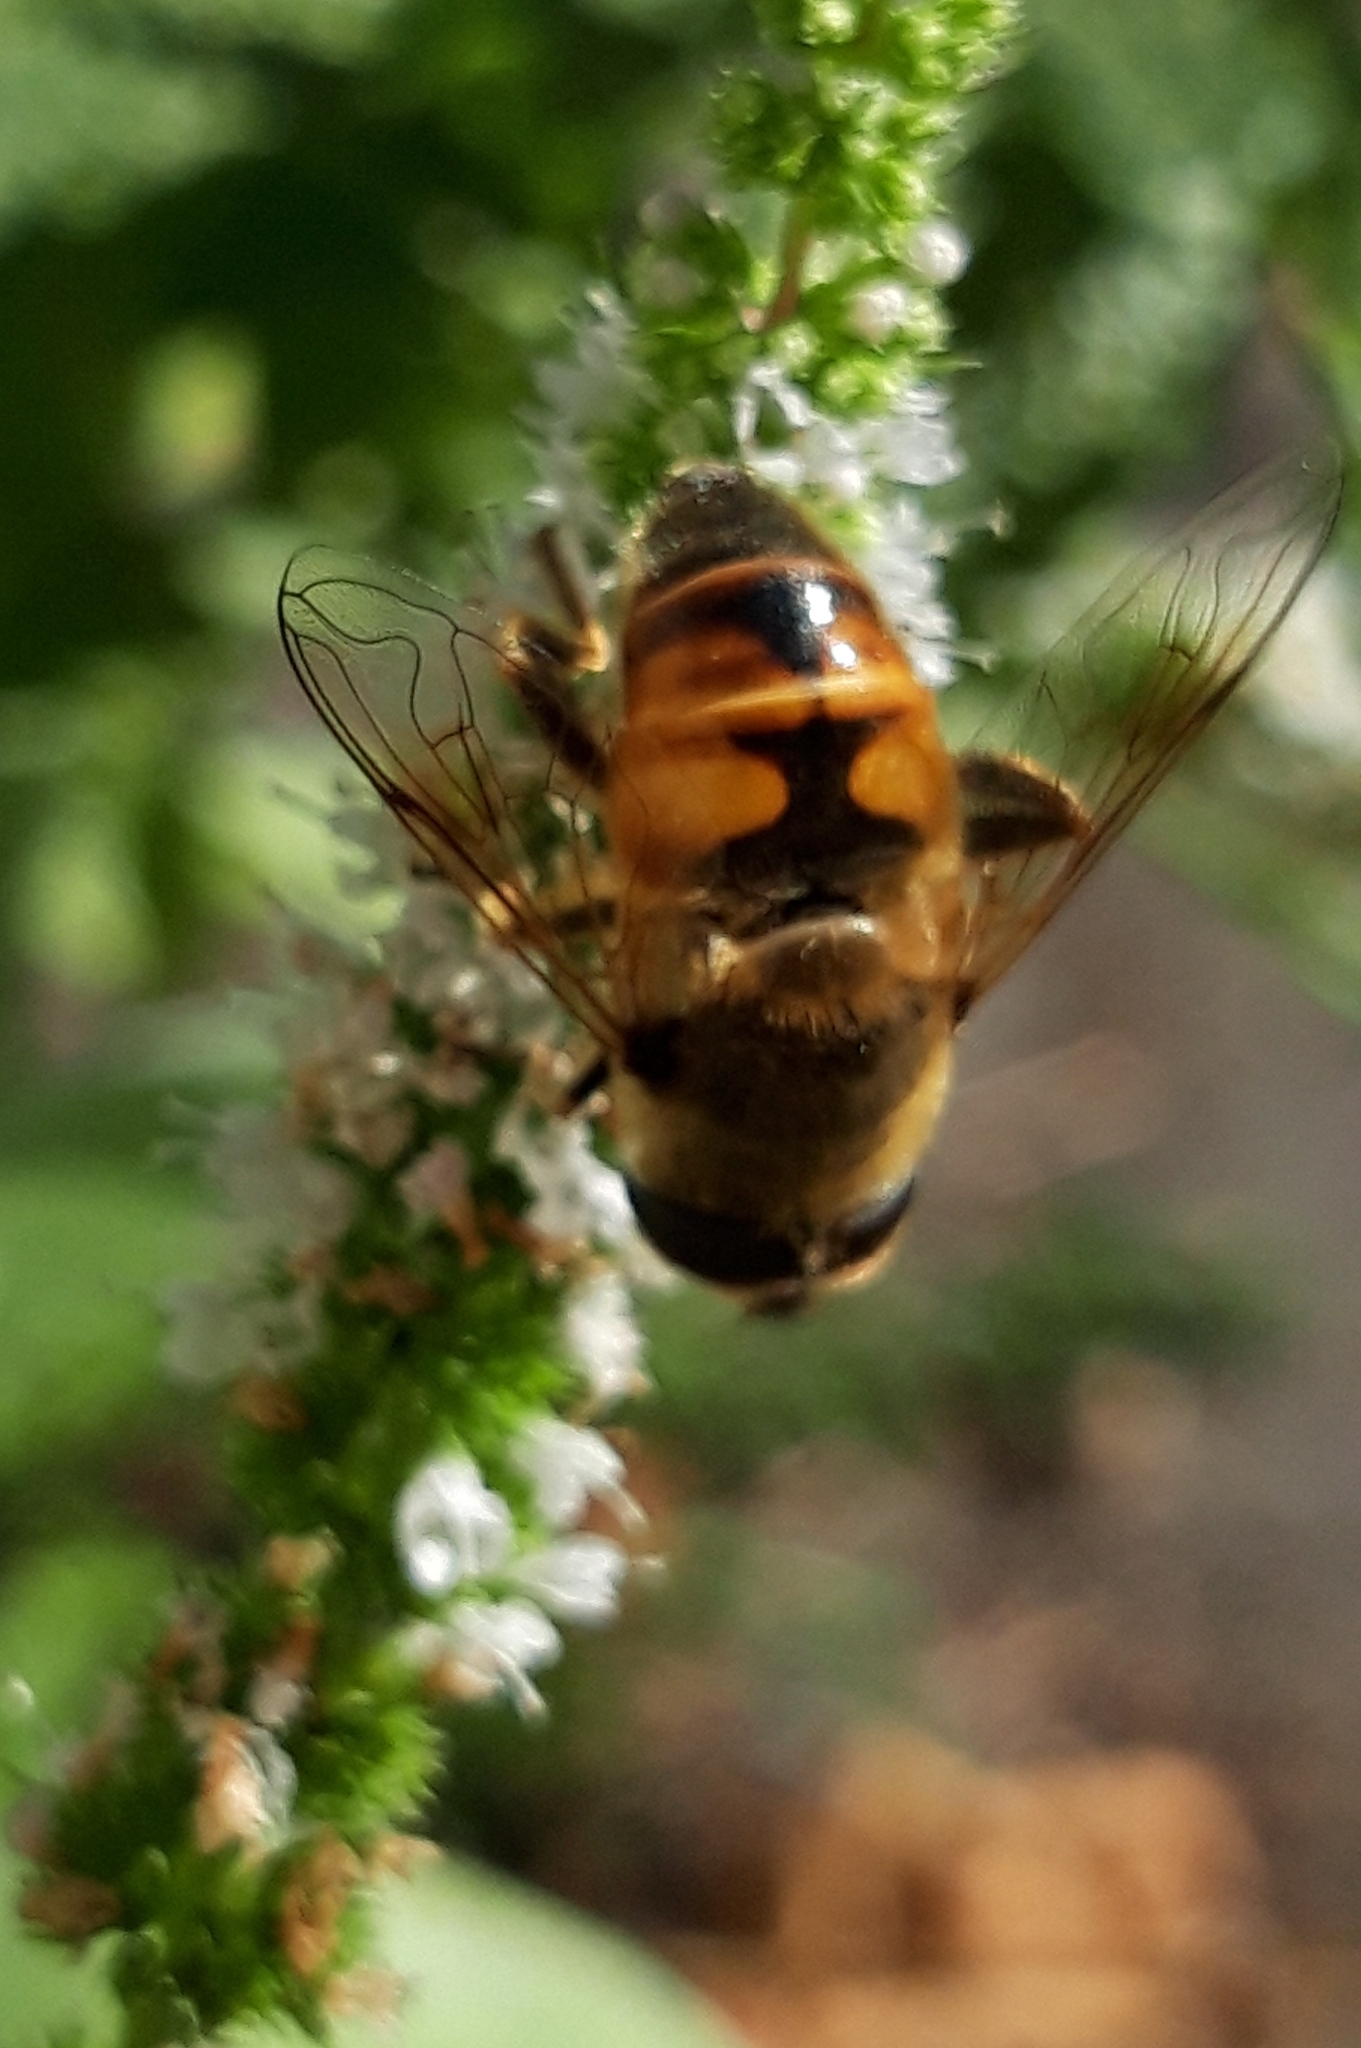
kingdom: Animalia
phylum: Arthropoda
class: Insecta
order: Diptera
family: Syrphidae
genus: Eristalis
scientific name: Eristalis tenax
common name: Drone fly
